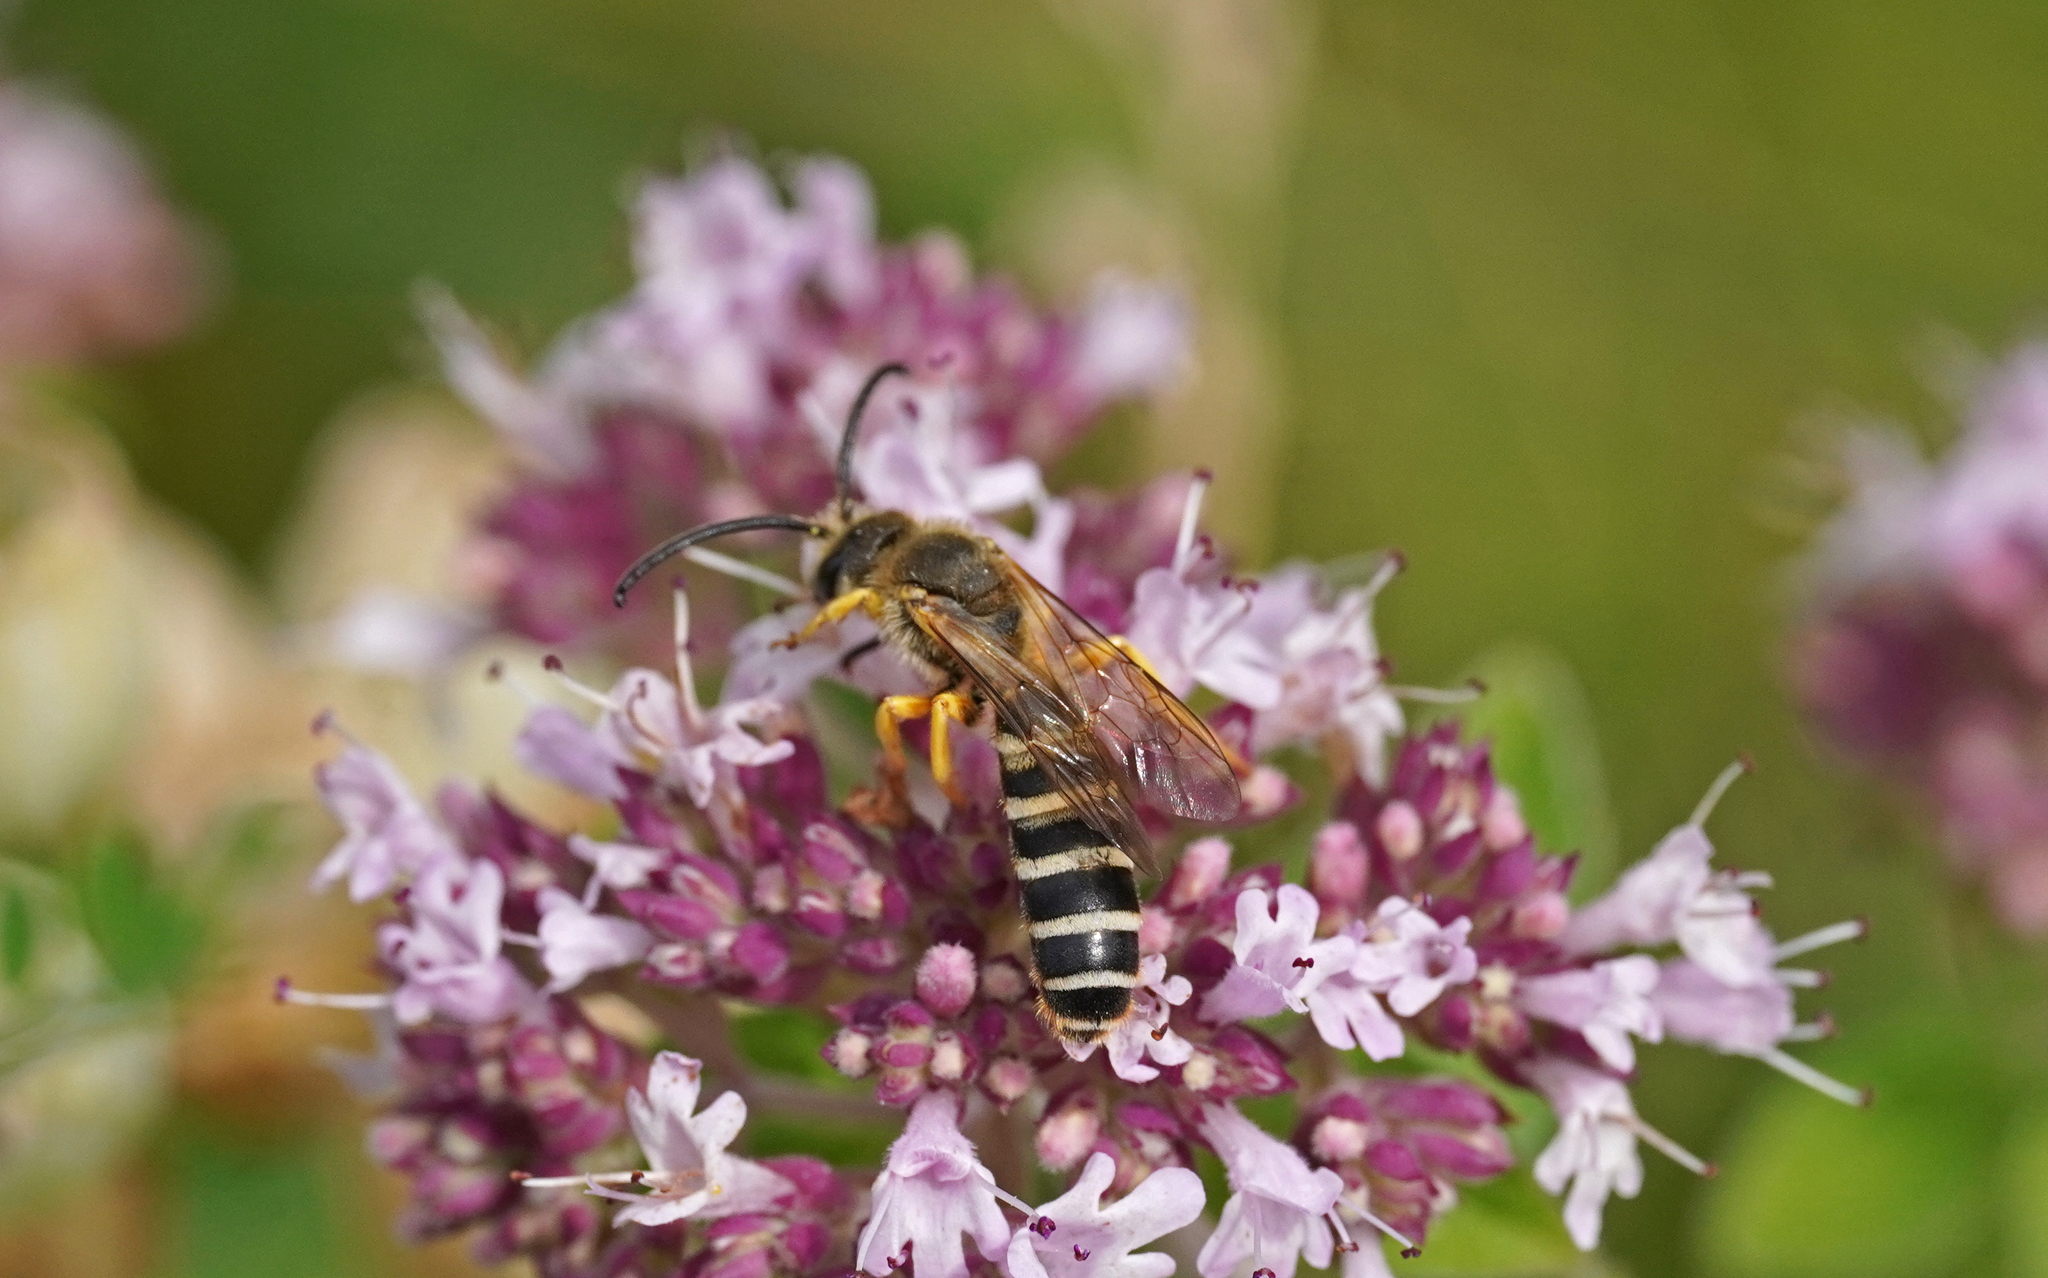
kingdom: Animalia
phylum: Arthropoda
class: Insecta
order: Hymenoptera
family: Halictidae
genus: Halictus
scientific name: Halictus scabiosae
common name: Great banded furrow bee
